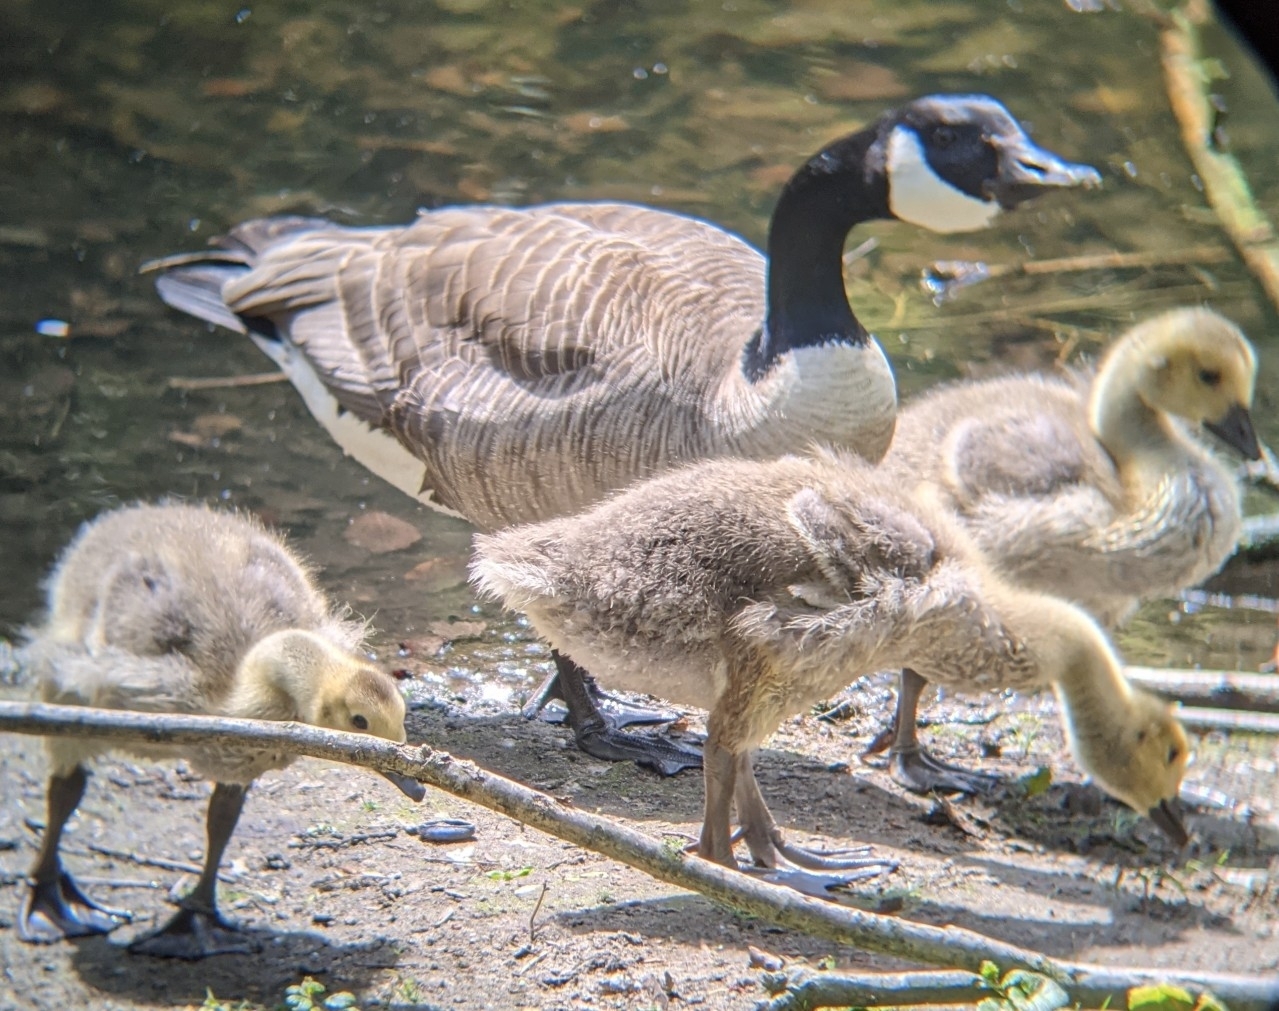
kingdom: Animalia
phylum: Chordata
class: Aves
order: Anseriformes
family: Anatidae
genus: Branta
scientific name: Branta canadensis
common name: Canada goose
